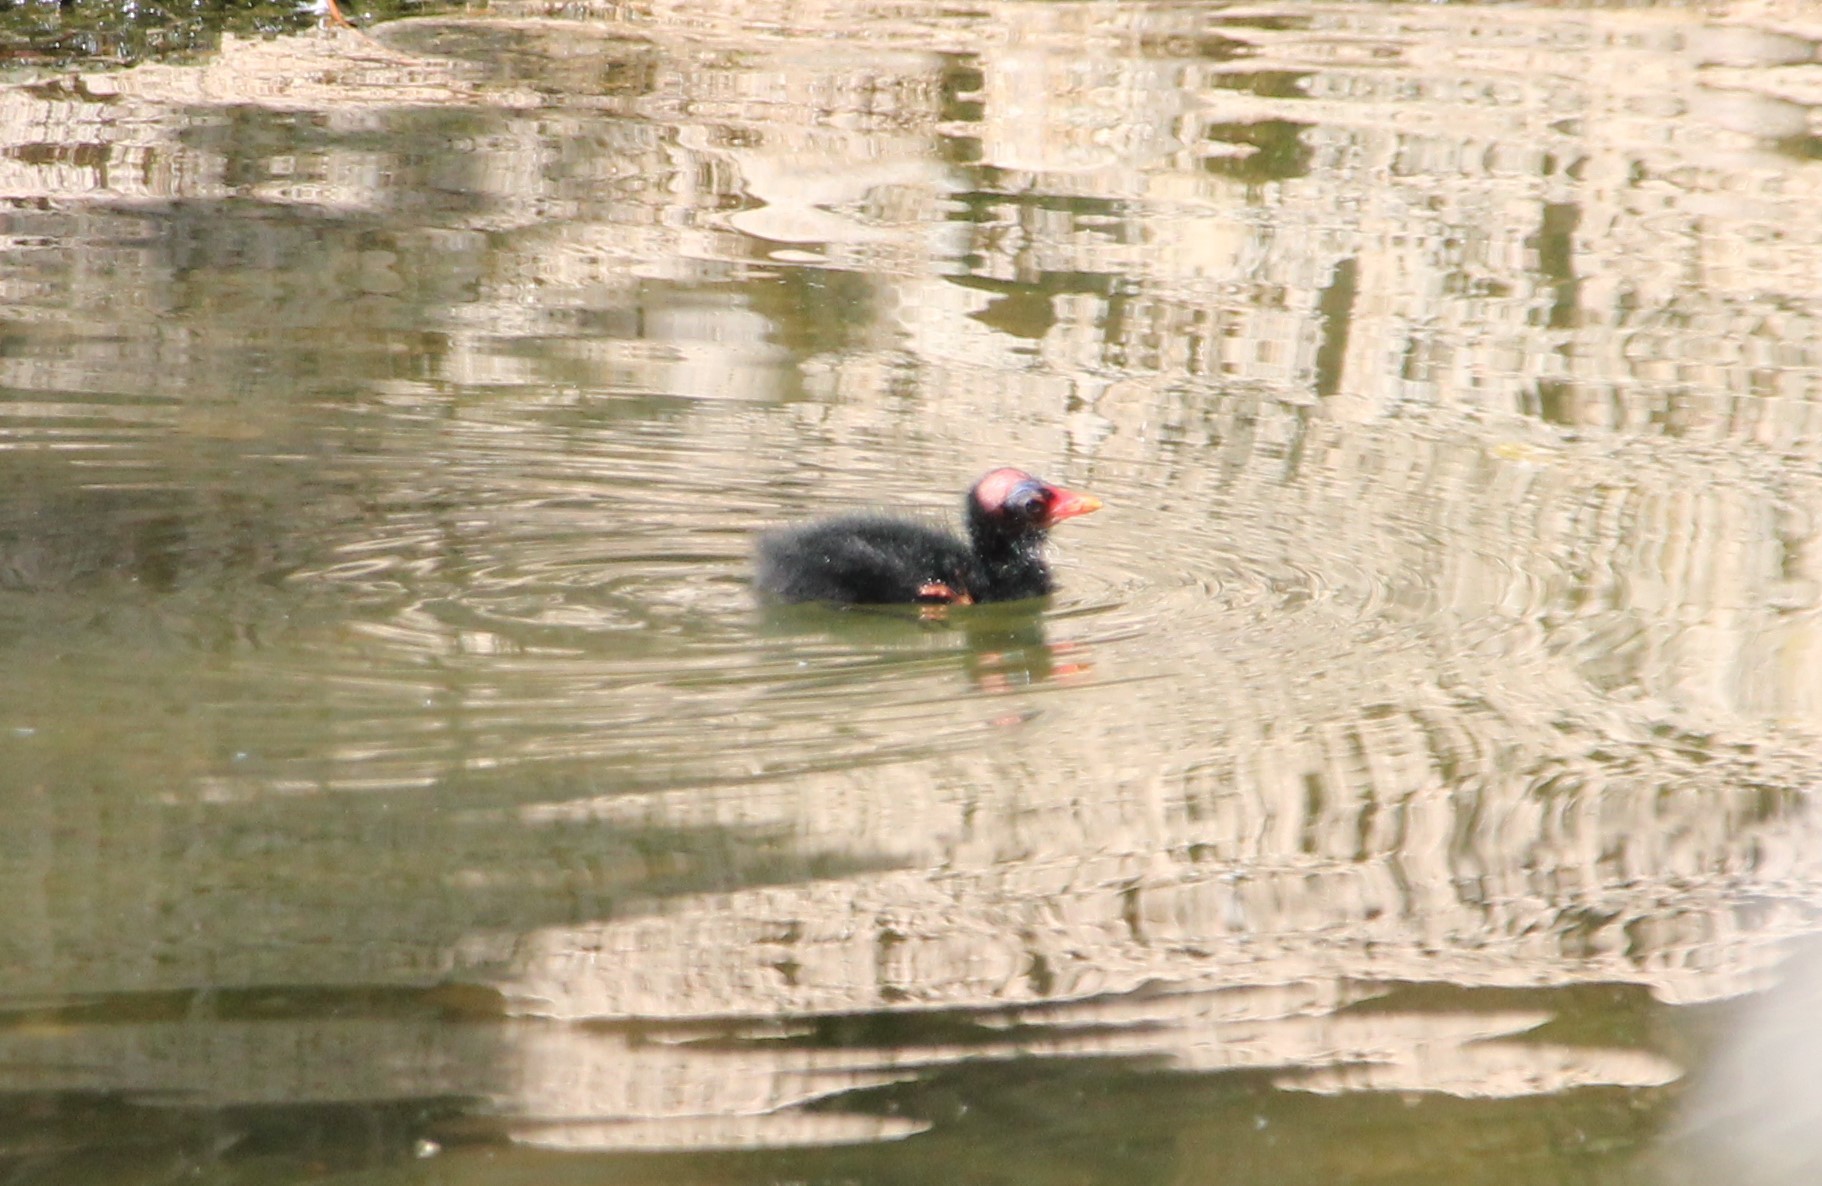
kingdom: Animalia
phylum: Chordata
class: Aves
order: Gruiformes
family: Rallidae
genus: Gallinula
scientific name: Gallinula chloropus
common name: Common moorhen
